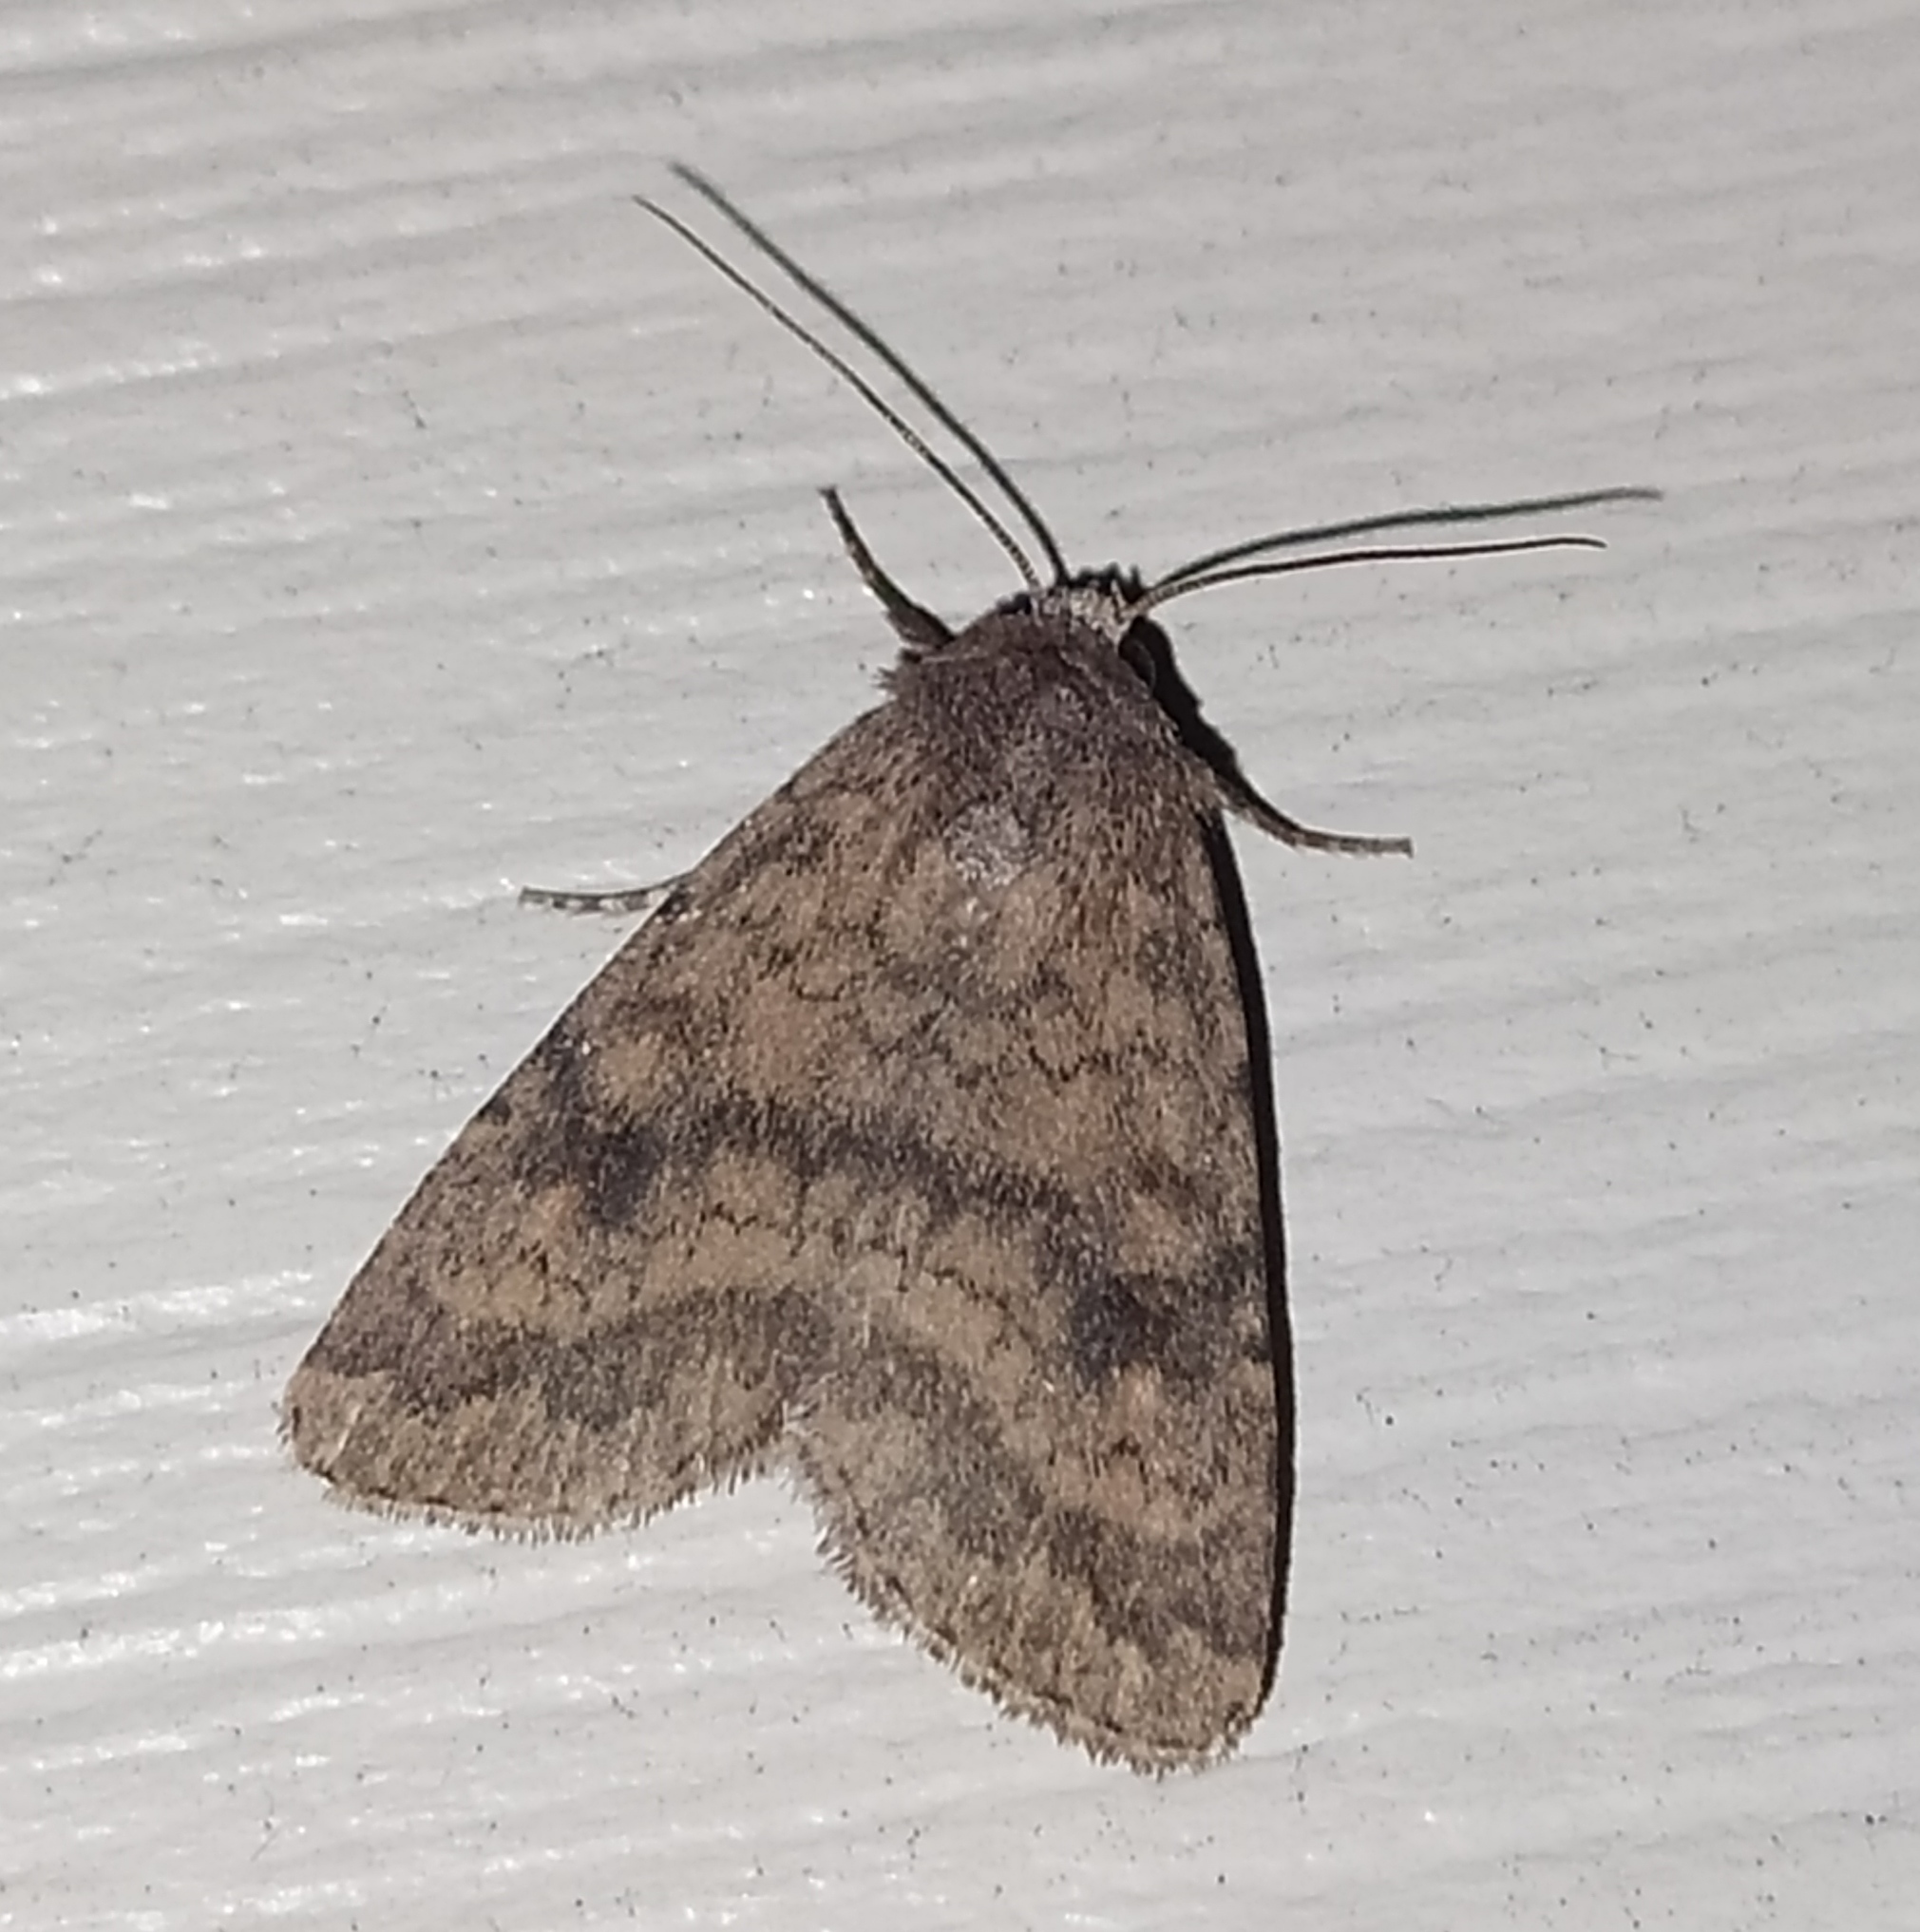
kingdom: Animalia
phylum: Arthropoda
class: Insecta
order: Lepidoptera
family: Noctuidae
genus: Caradrina
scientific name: Caradrina morpheus
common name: Mottled rustic
